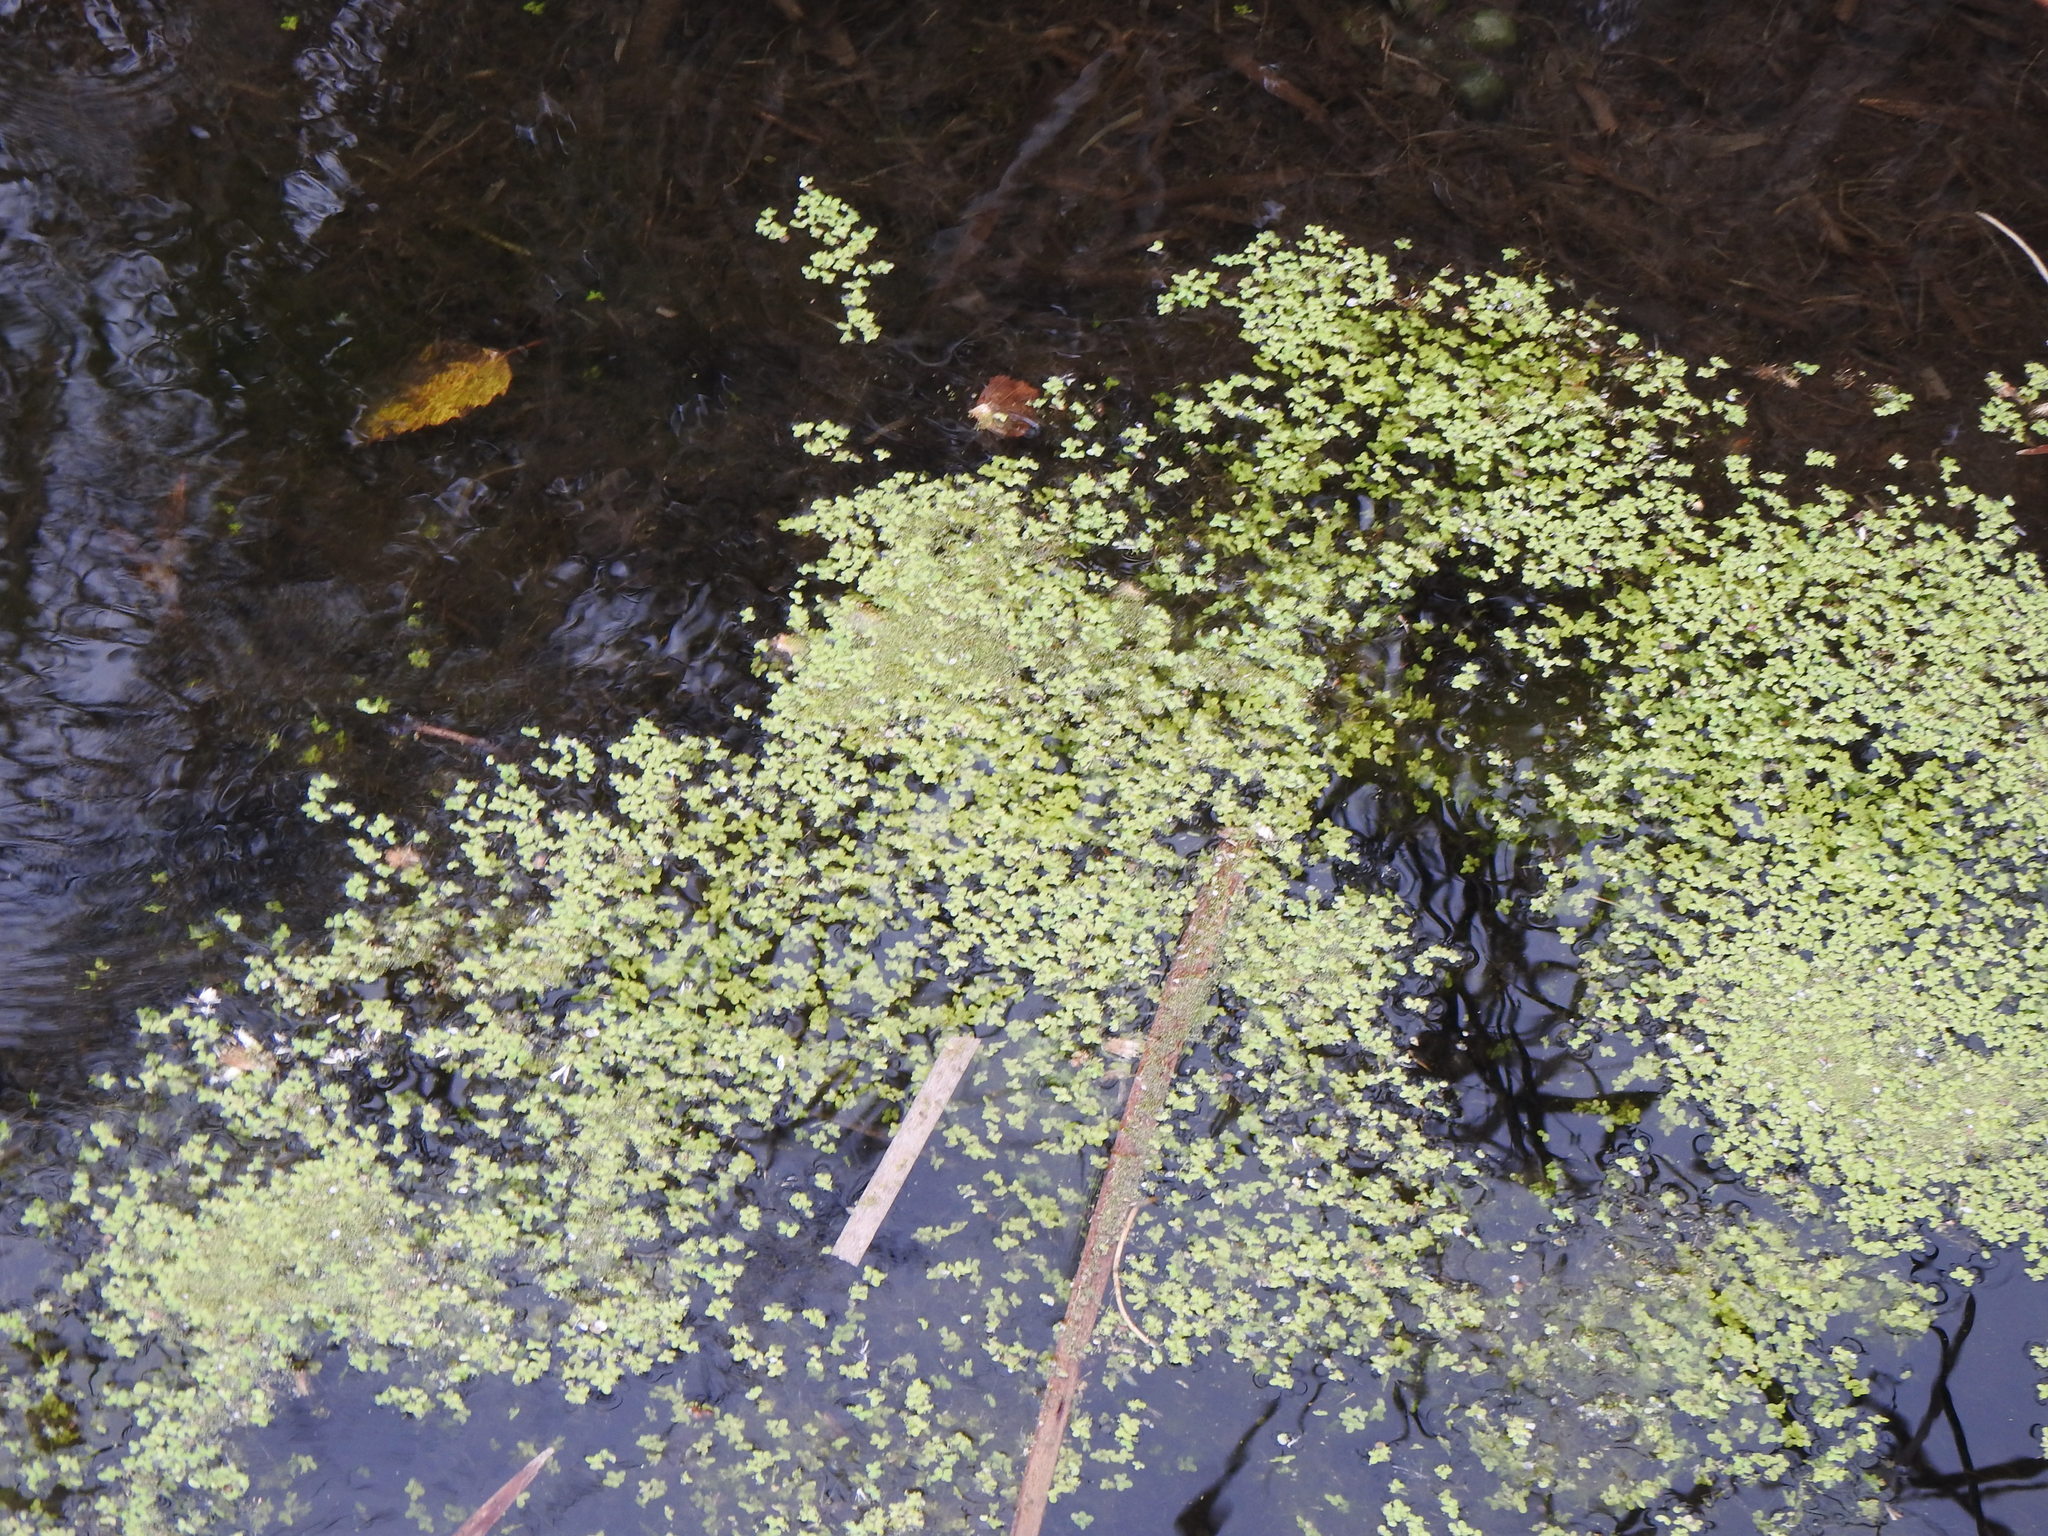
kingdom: Plantae
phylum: Tracheophyta
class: Liliopsida
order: Alismatales
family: Araceae
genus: Lemna
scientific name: Lemna
